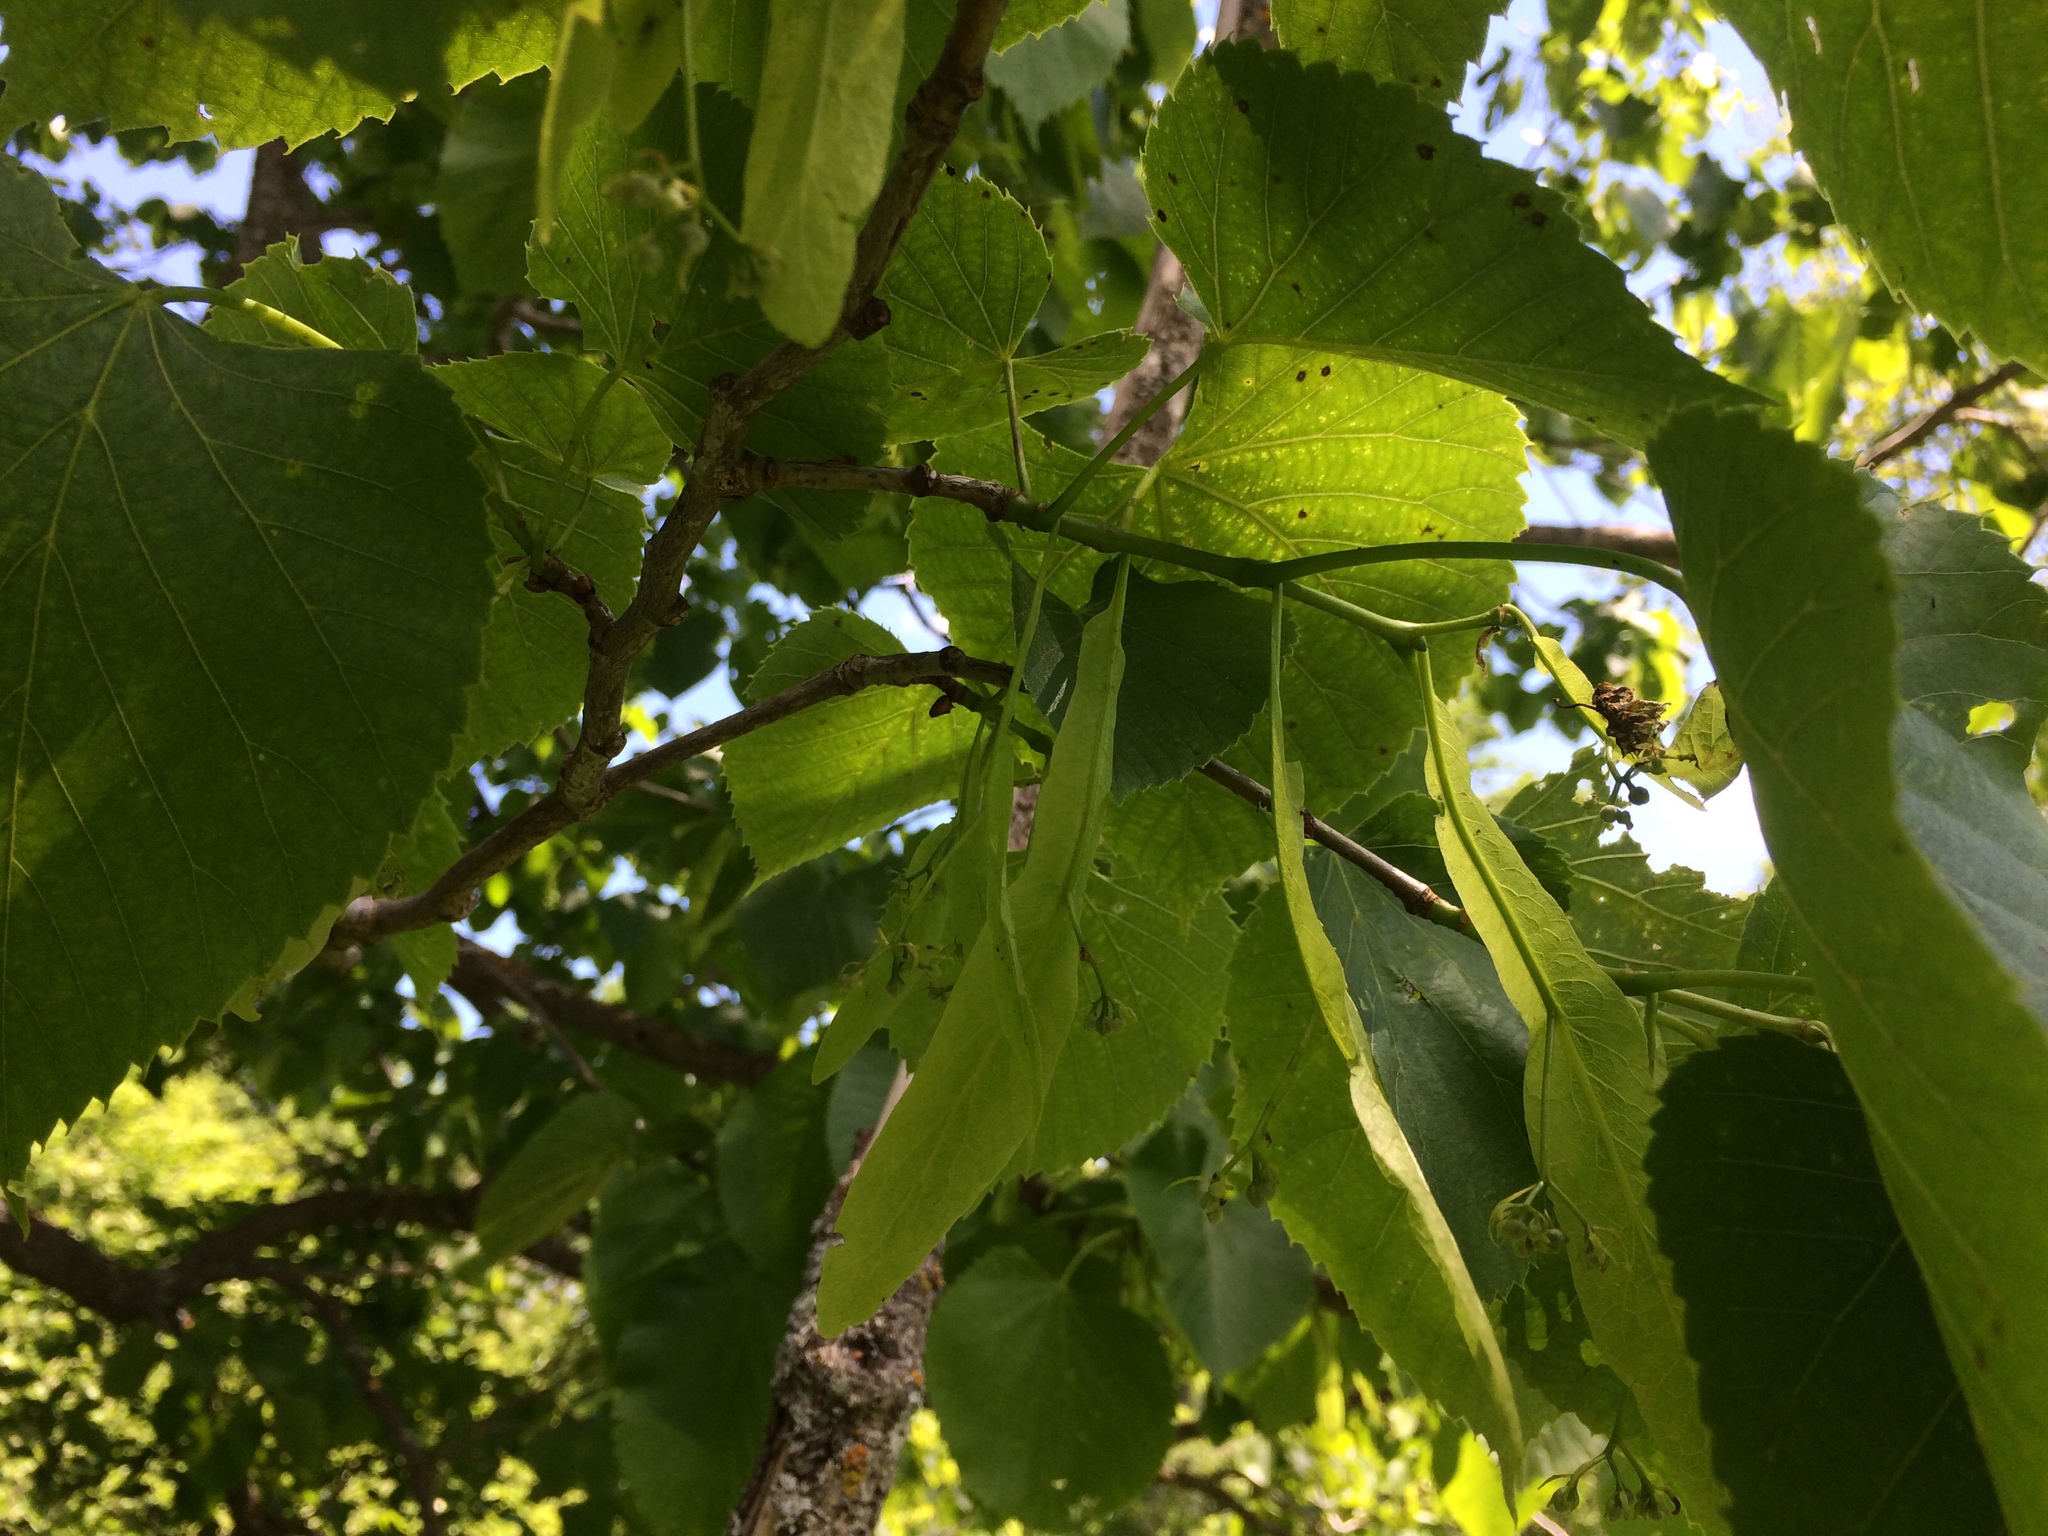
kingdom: Plantae
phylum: Tracheophyta
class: Magnoliopsida
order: Malvales
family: Malvaceae
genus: Tilia
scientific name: Tilia americana
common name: Basswood
